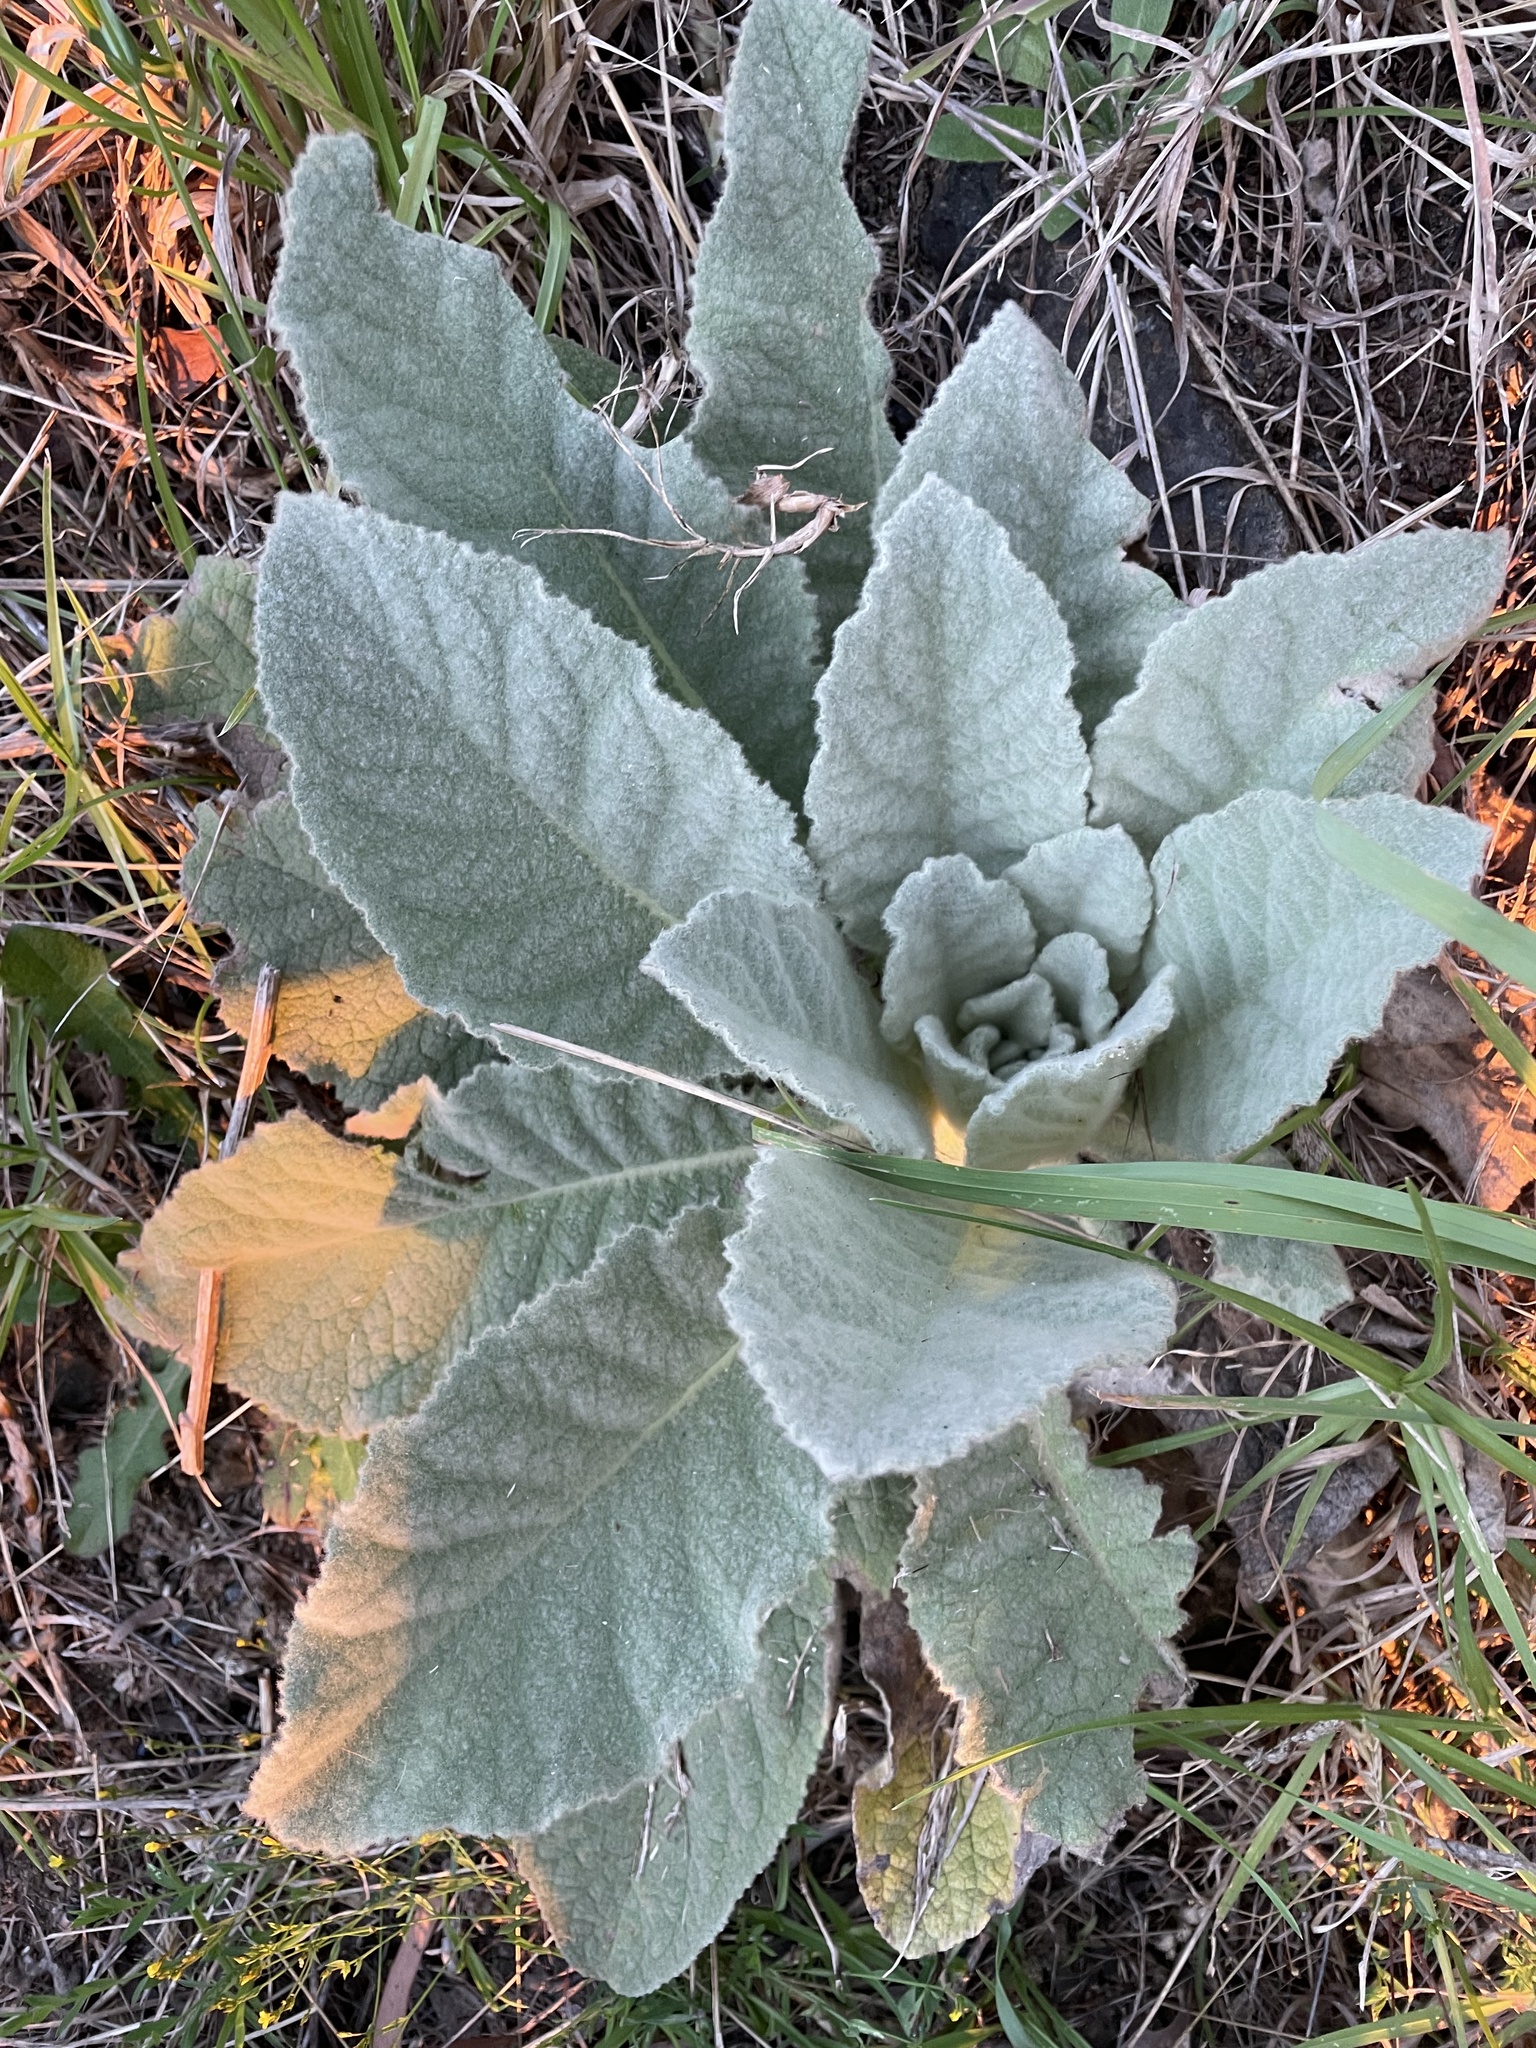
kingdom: Plantae
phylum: Tracheophyta
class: Magnoliopsida
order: Lamiales
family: Scrophulariaceae
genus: Verbascum
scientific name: Verbascum thapsus
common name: Common mullein
